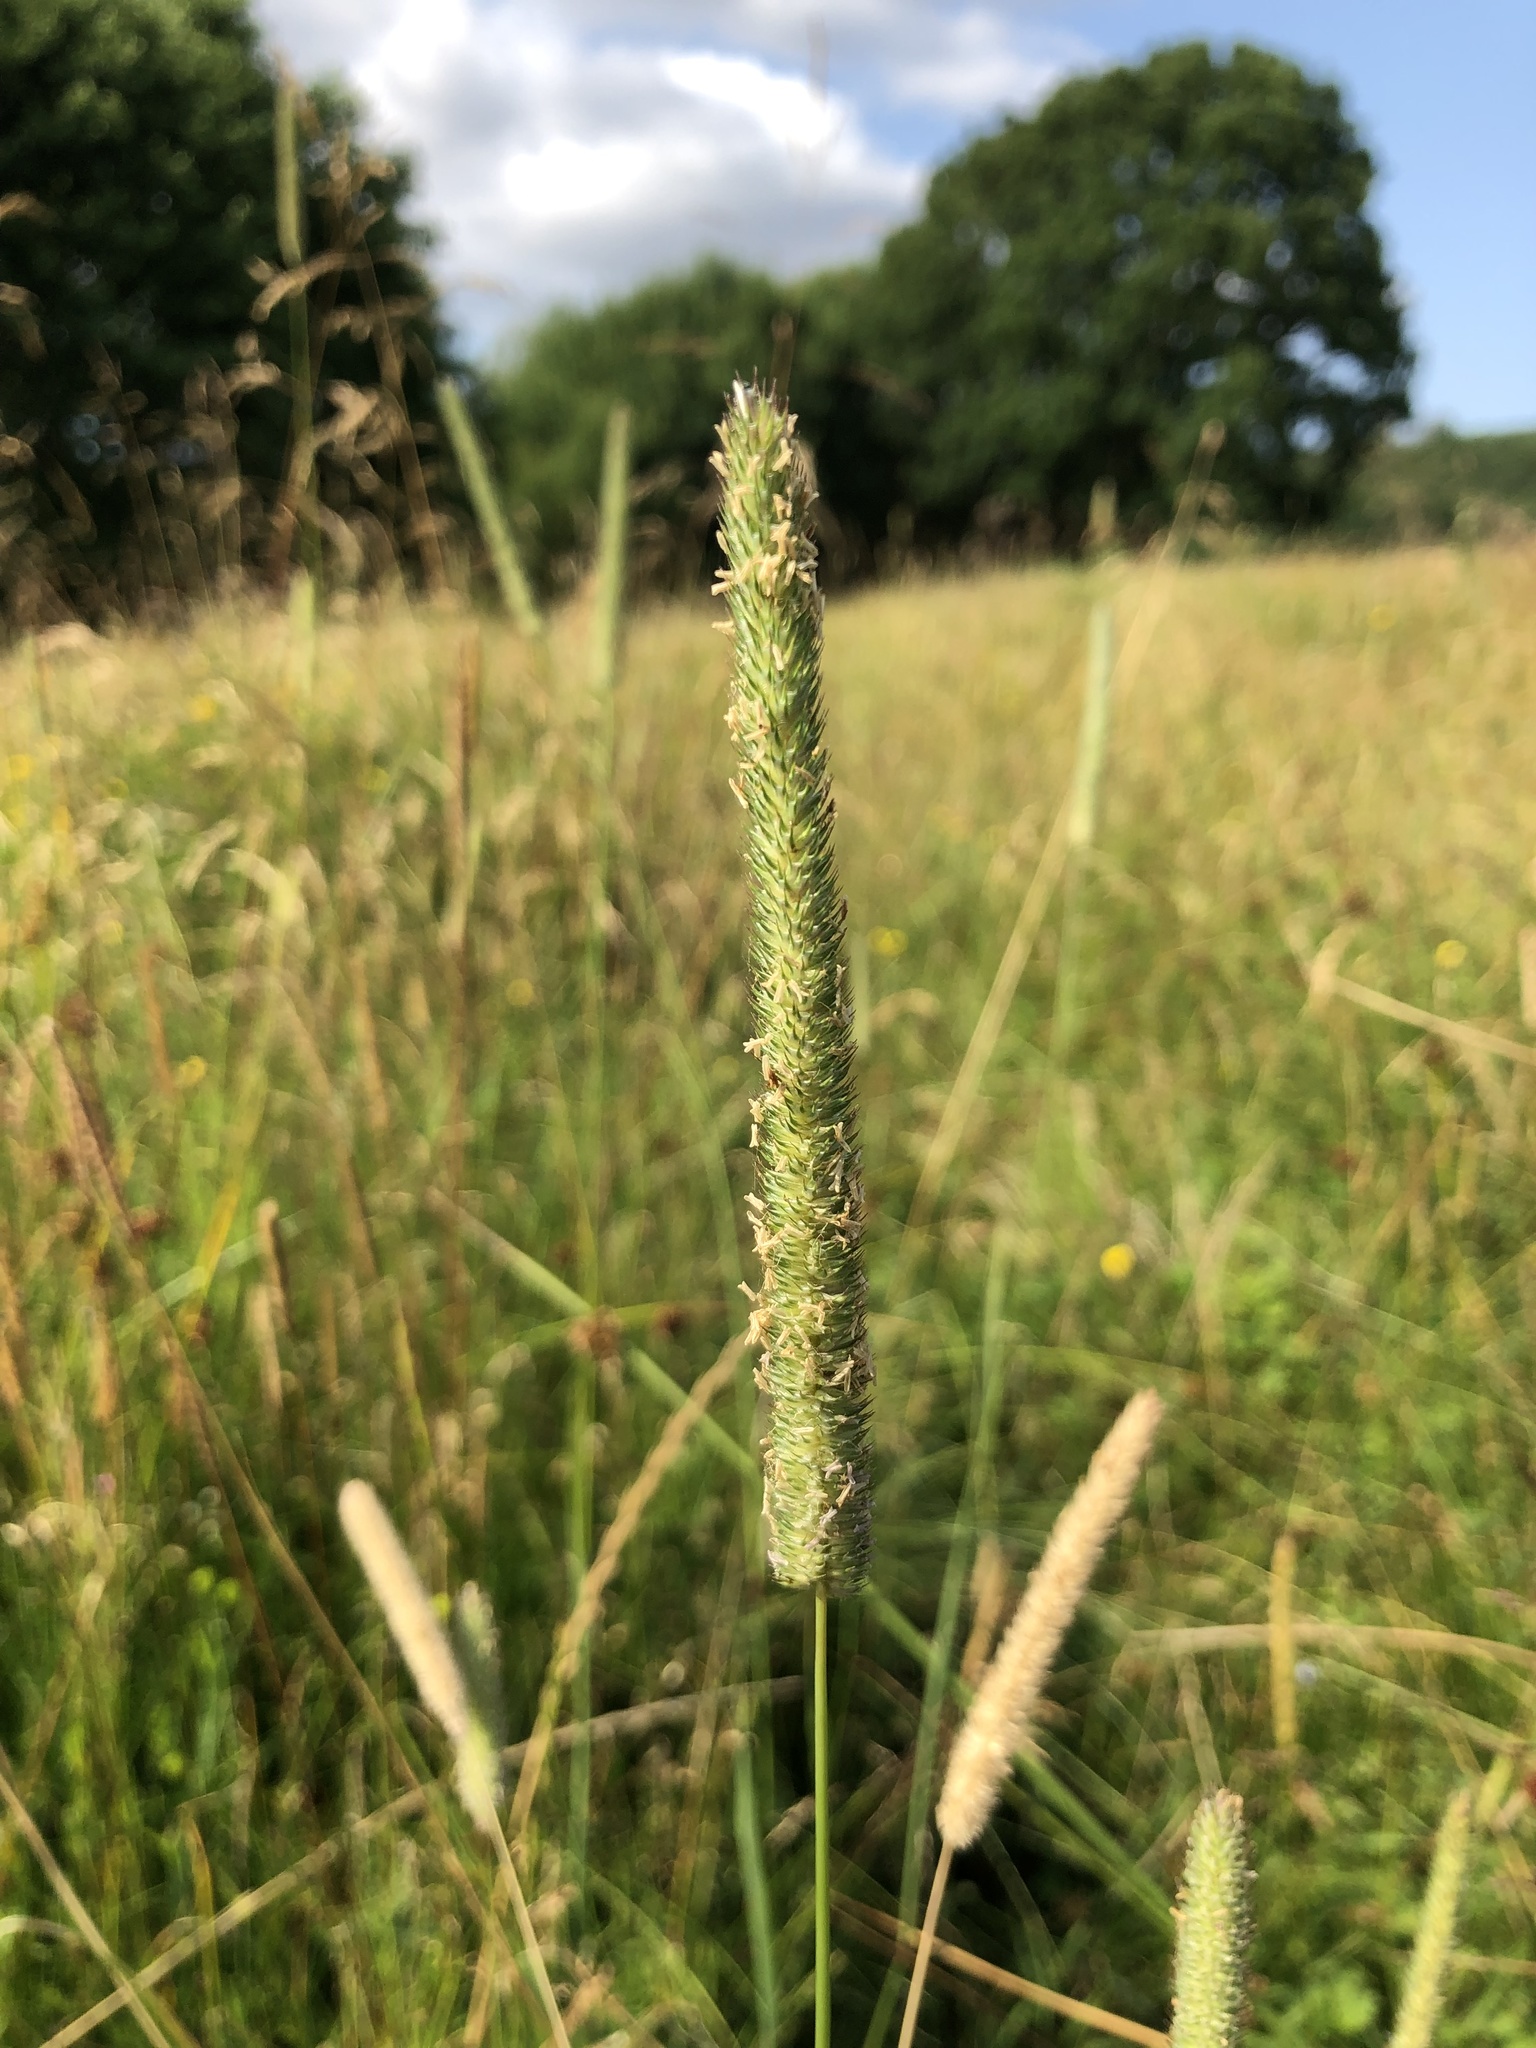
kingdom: Plantae
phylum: Tracheophyta
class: Liliopsida
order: Poales
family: Poaceae
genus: Phleum
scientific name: Phleum pratense
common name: Timothy grass
